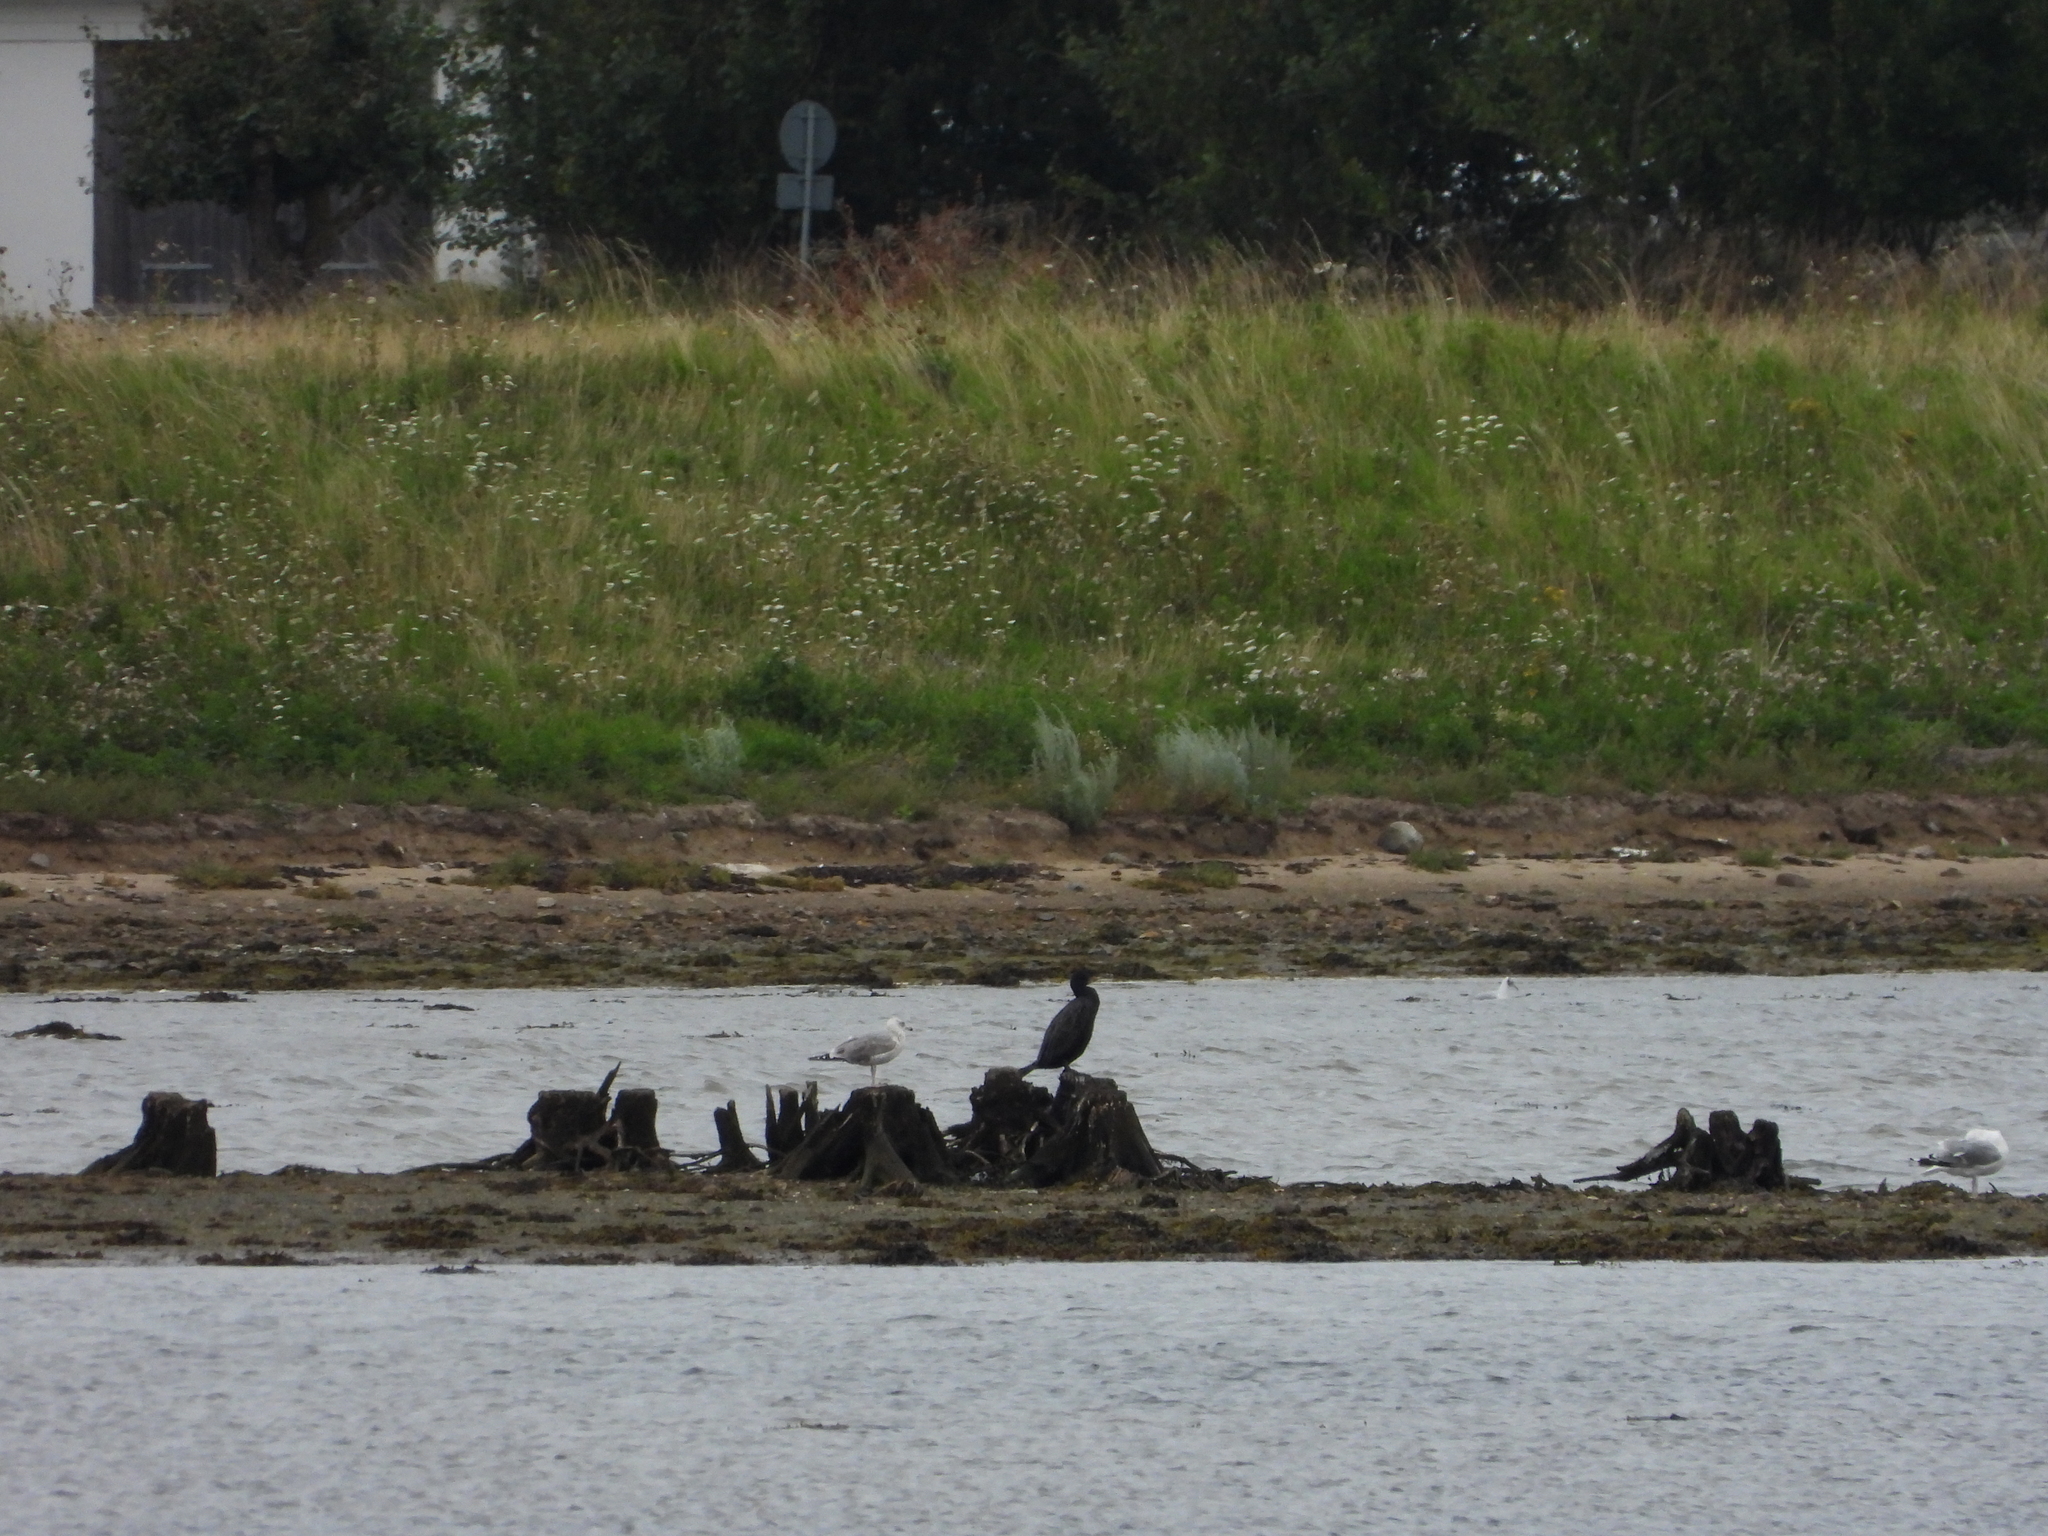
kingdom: Animalia
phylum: Chordata
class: Aves
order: Suliformes
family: Phalacrocoracidae
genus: Phalacrocorax
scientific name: Phalacrocorax carbo
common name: Great cormorant
